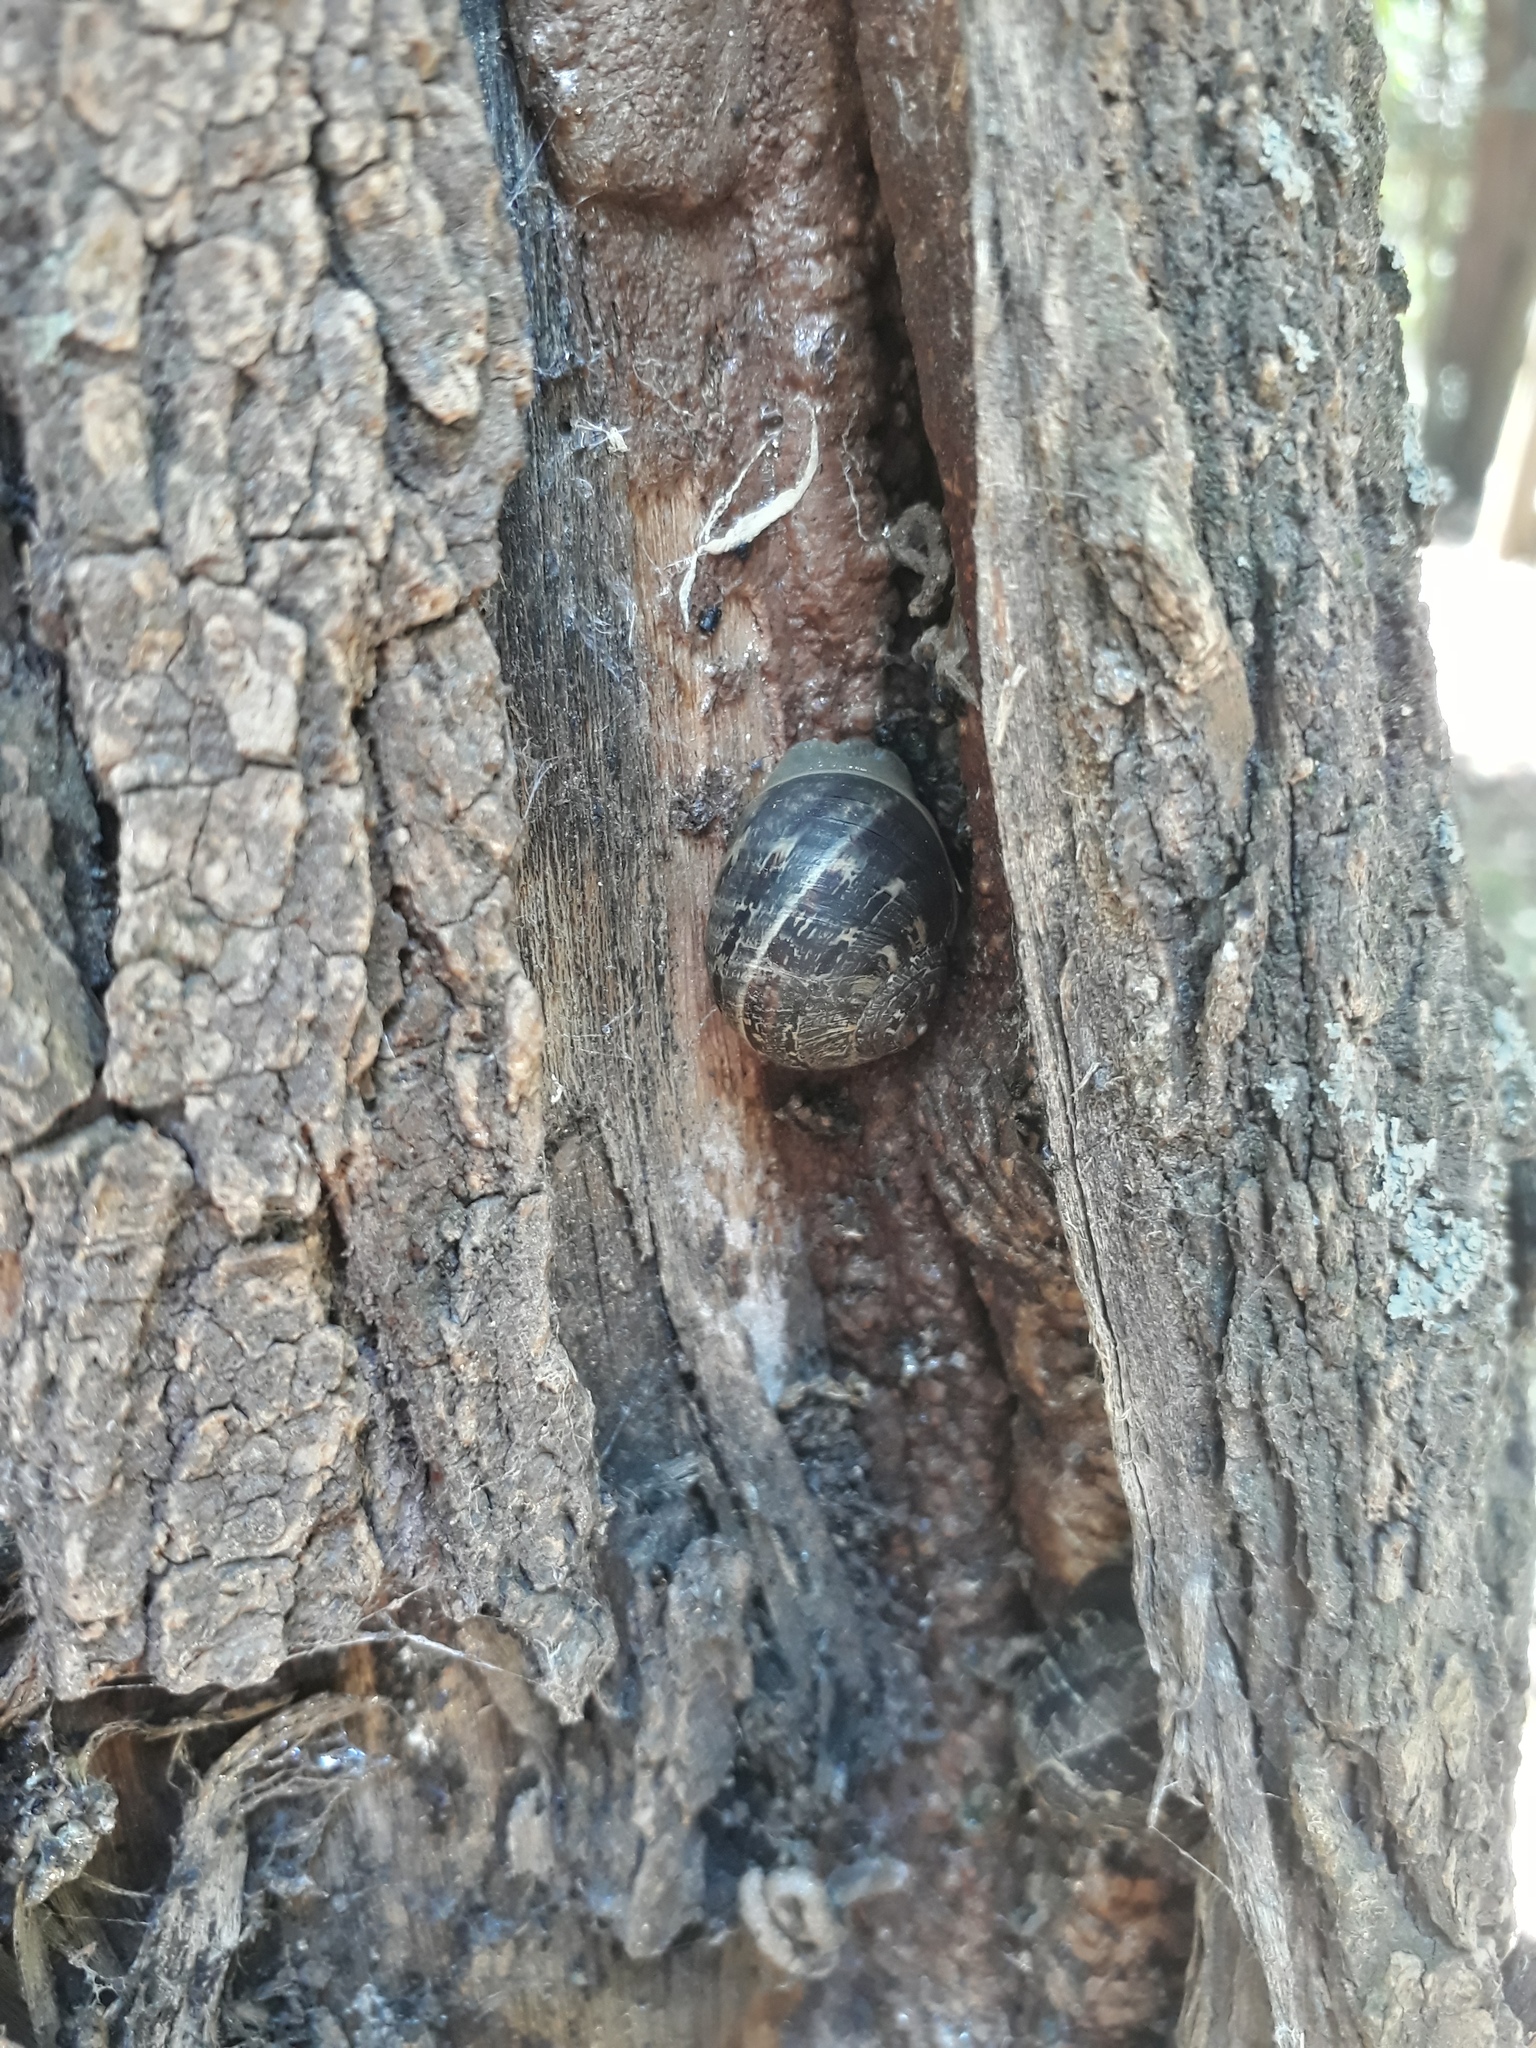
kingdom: Animalia
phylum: Mollusca
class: Gastropoda
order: Stylommatophora
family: Helicidae
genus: Cornu
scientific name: Cornu aspersum
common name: Brown garden snail
